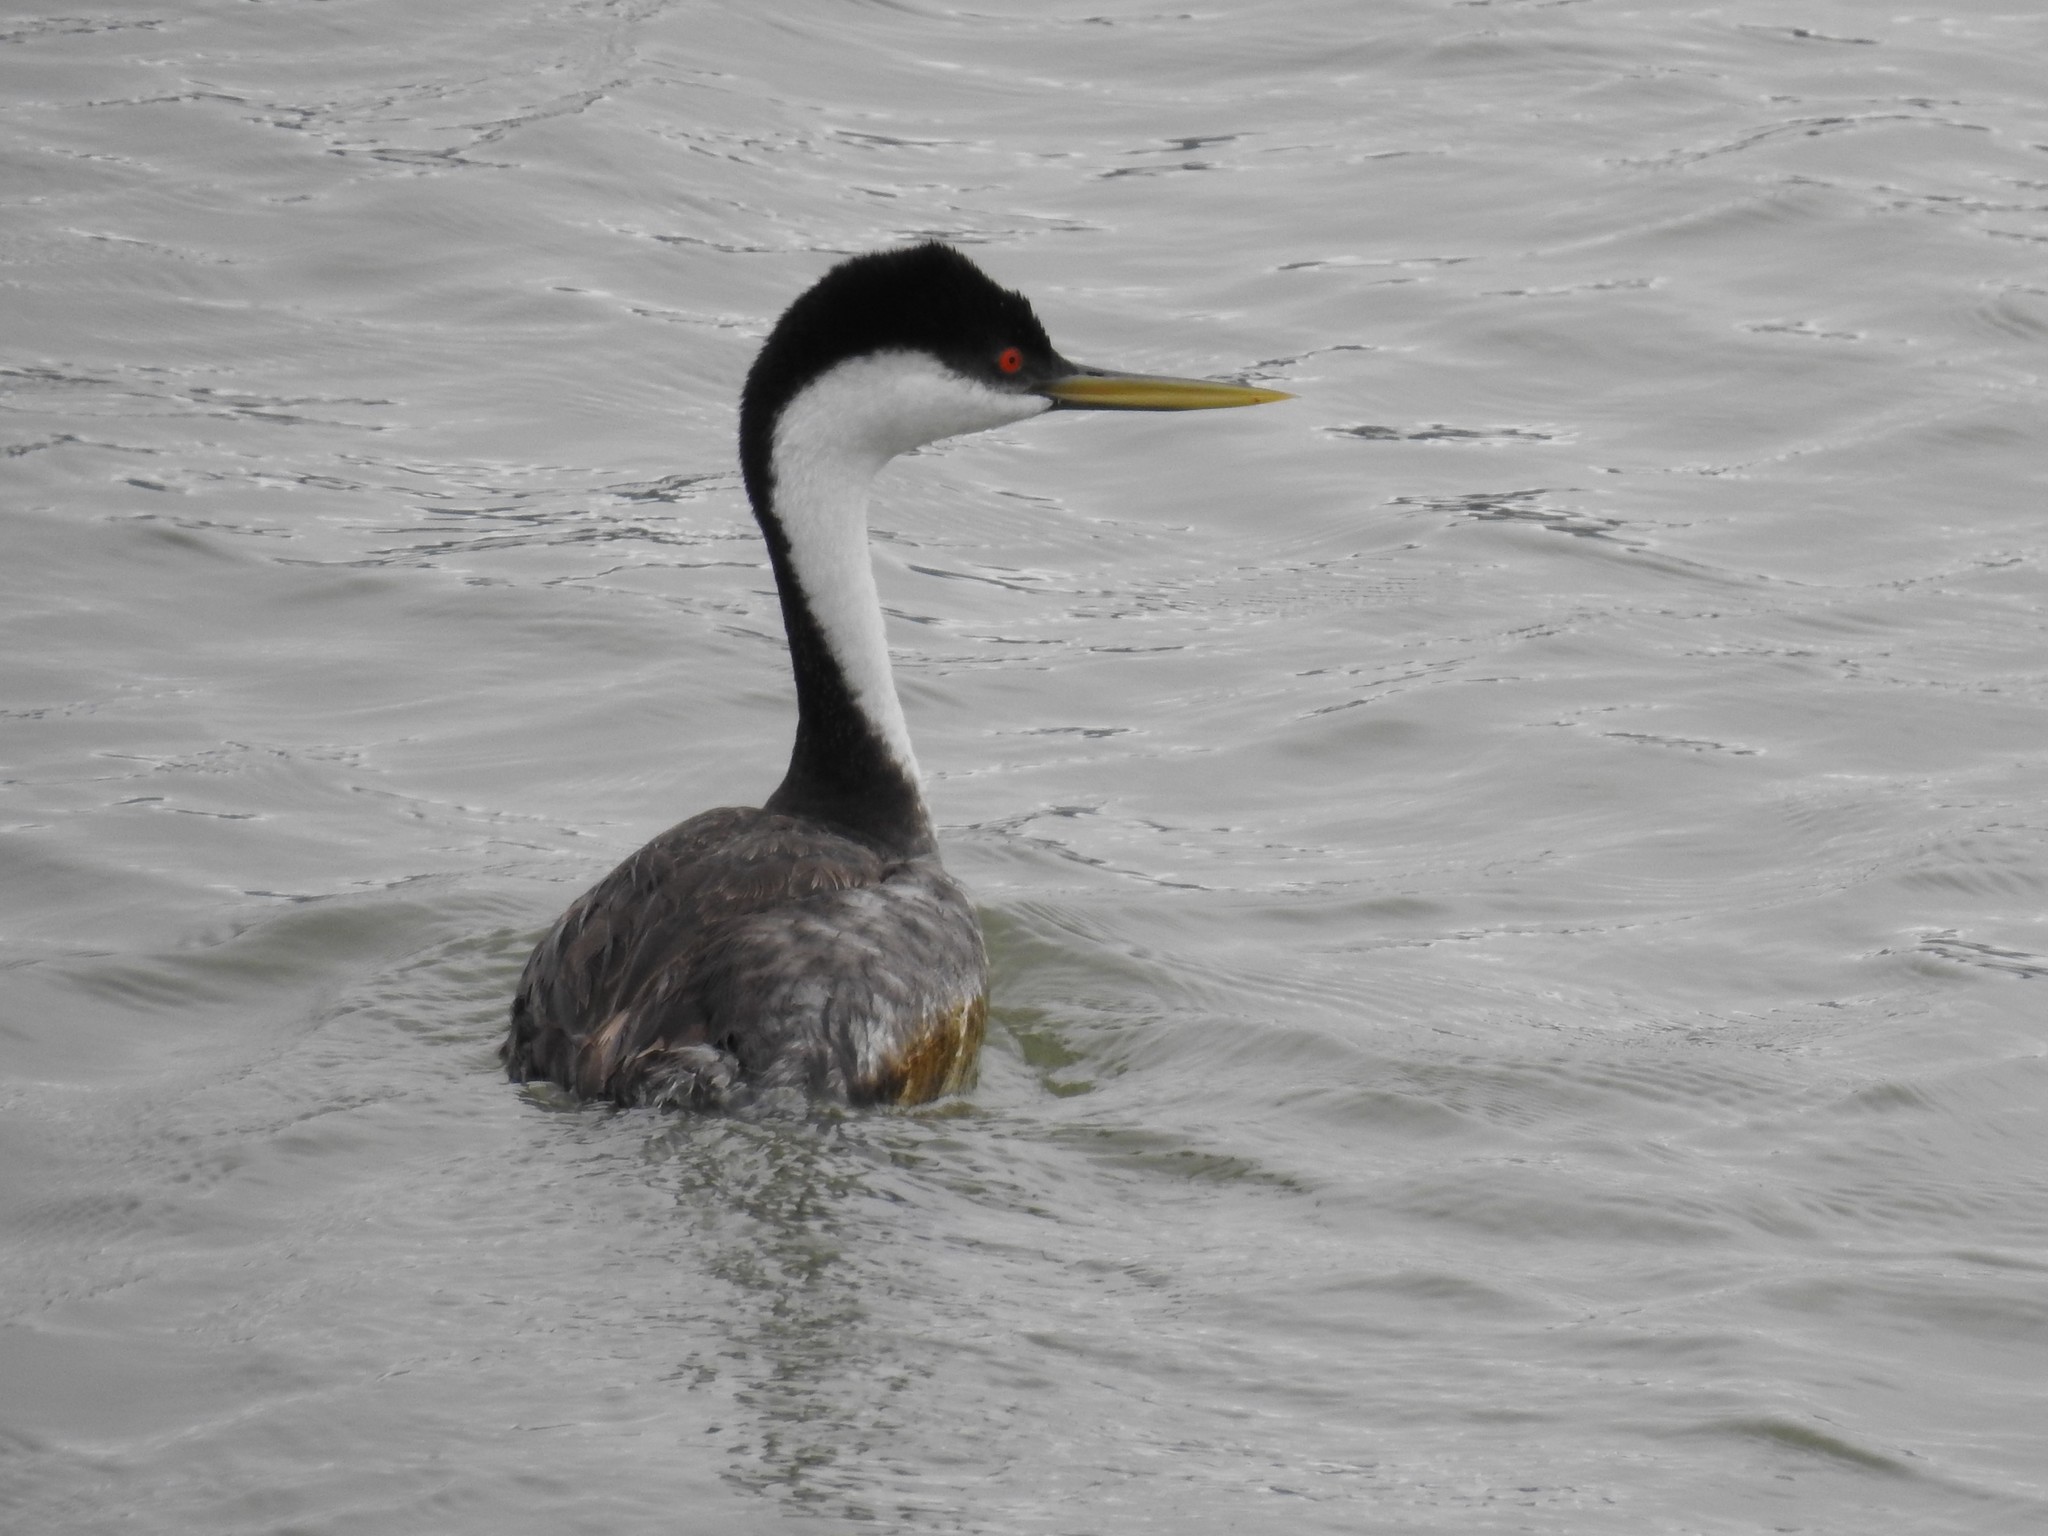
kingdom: Animalia
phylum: Chordata
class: Aves
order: Podicipediformes
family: Podicipedidae
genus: Aechmophorus
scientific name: Aechmophorus occidentalis
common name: Western grebe
